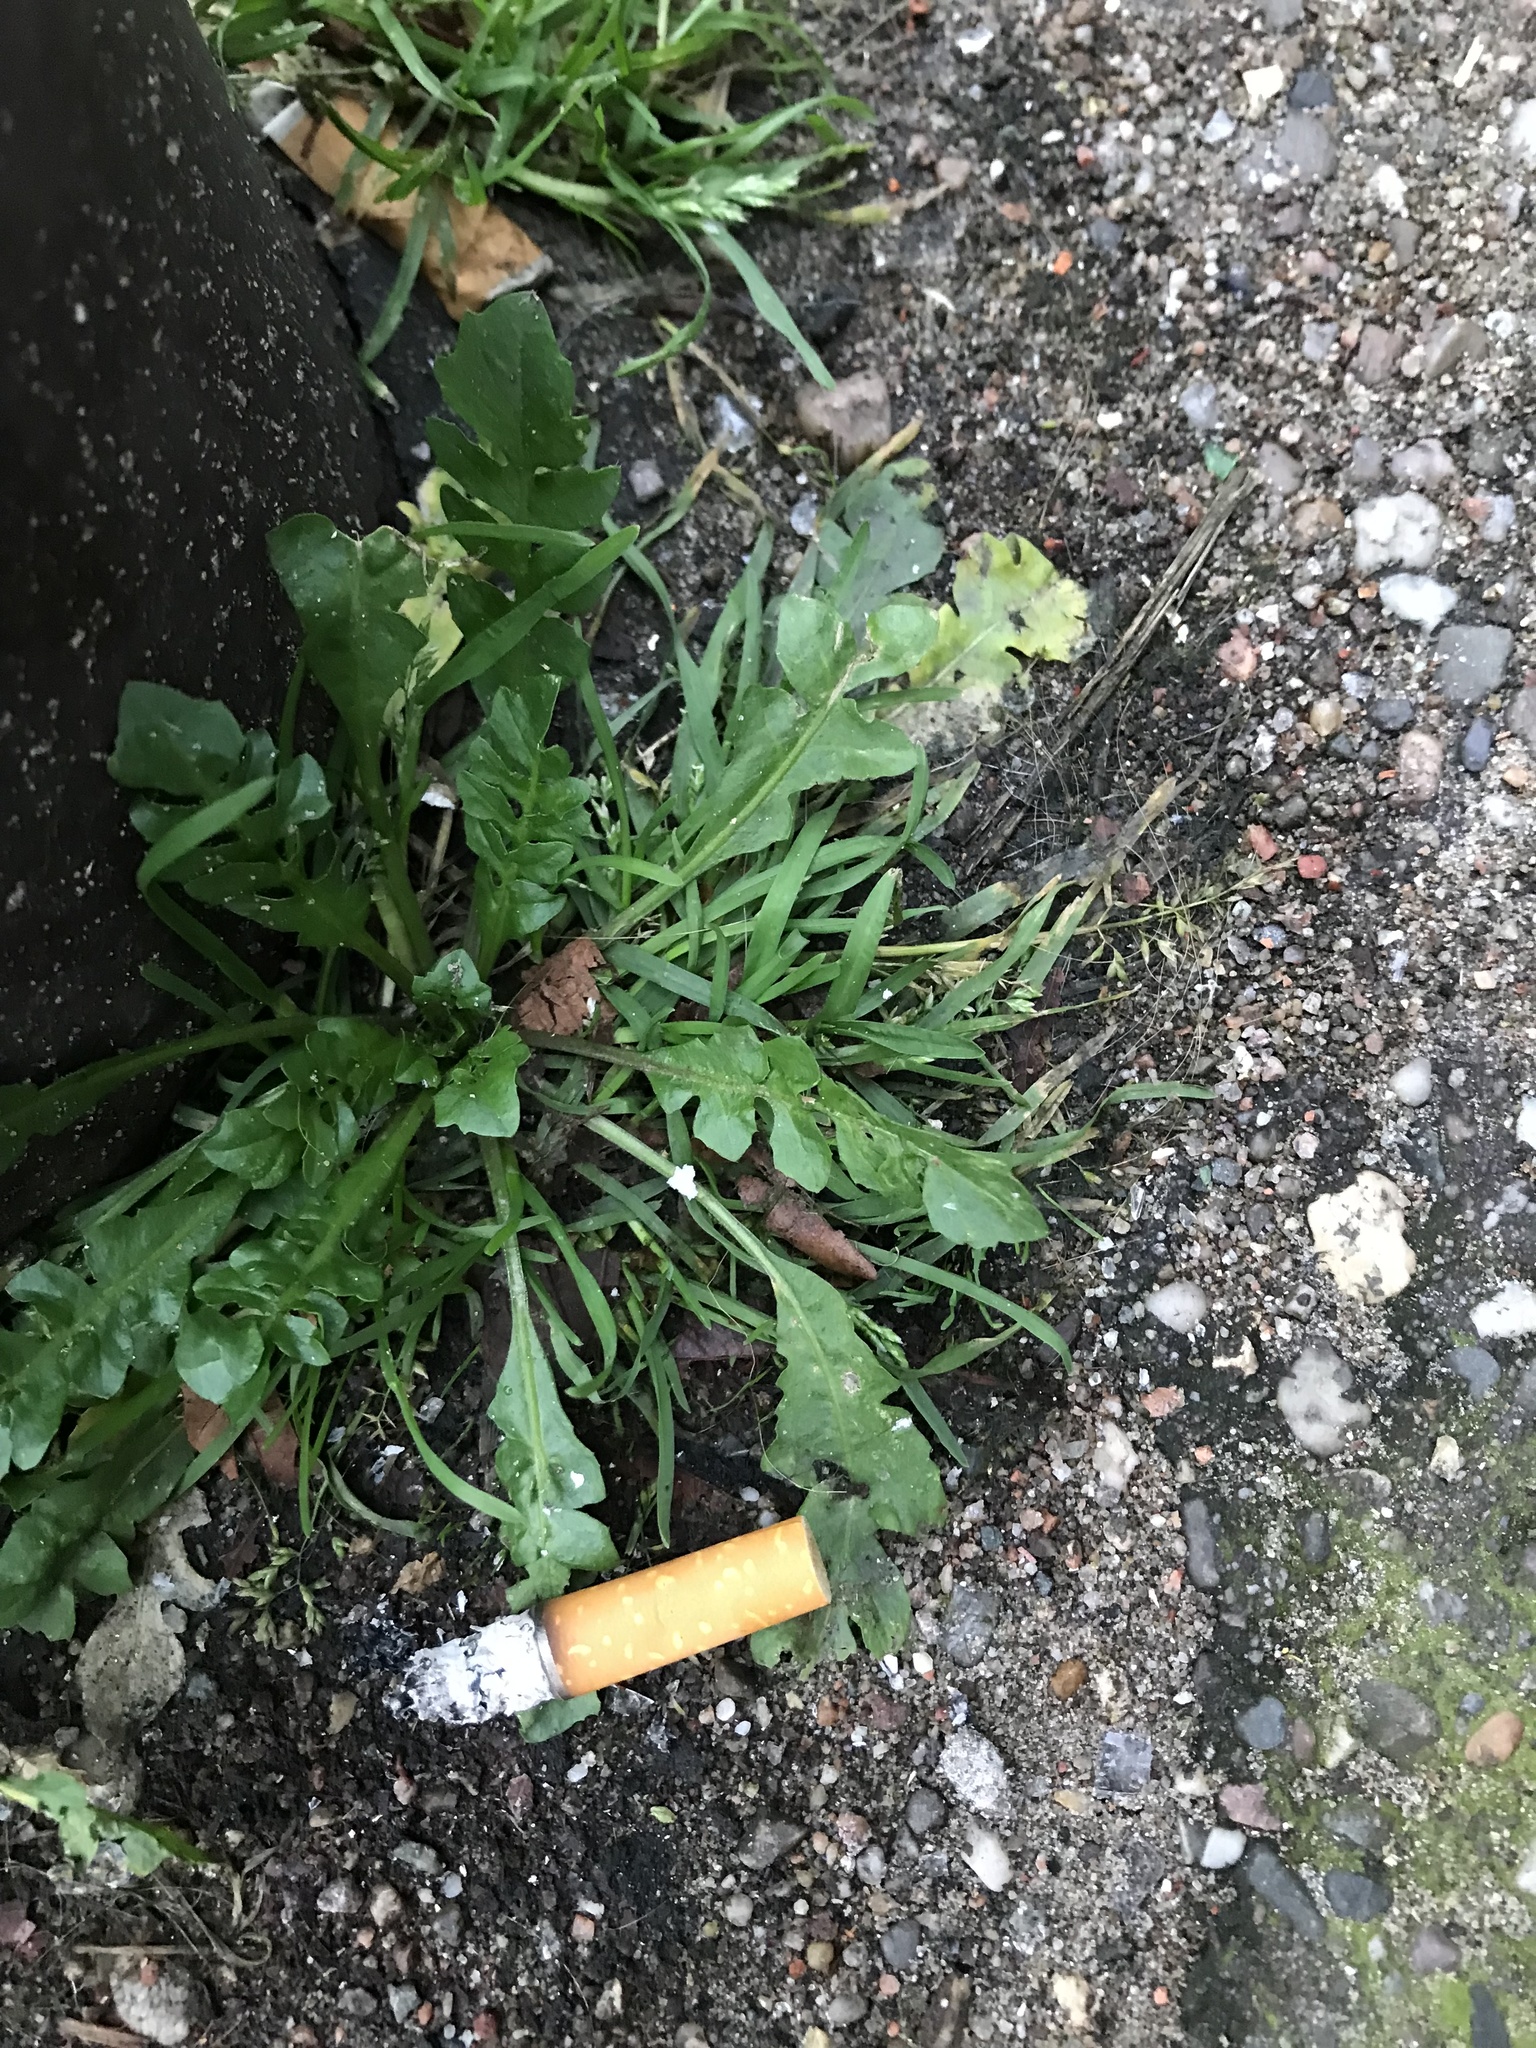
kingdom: Plantae
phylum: Tracheophyta
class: Magnoliopsida
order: Brassicales
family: Brassicaceae
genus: Capsella
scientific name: Capsella bursa-pastoris
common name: Shepherd's purse
